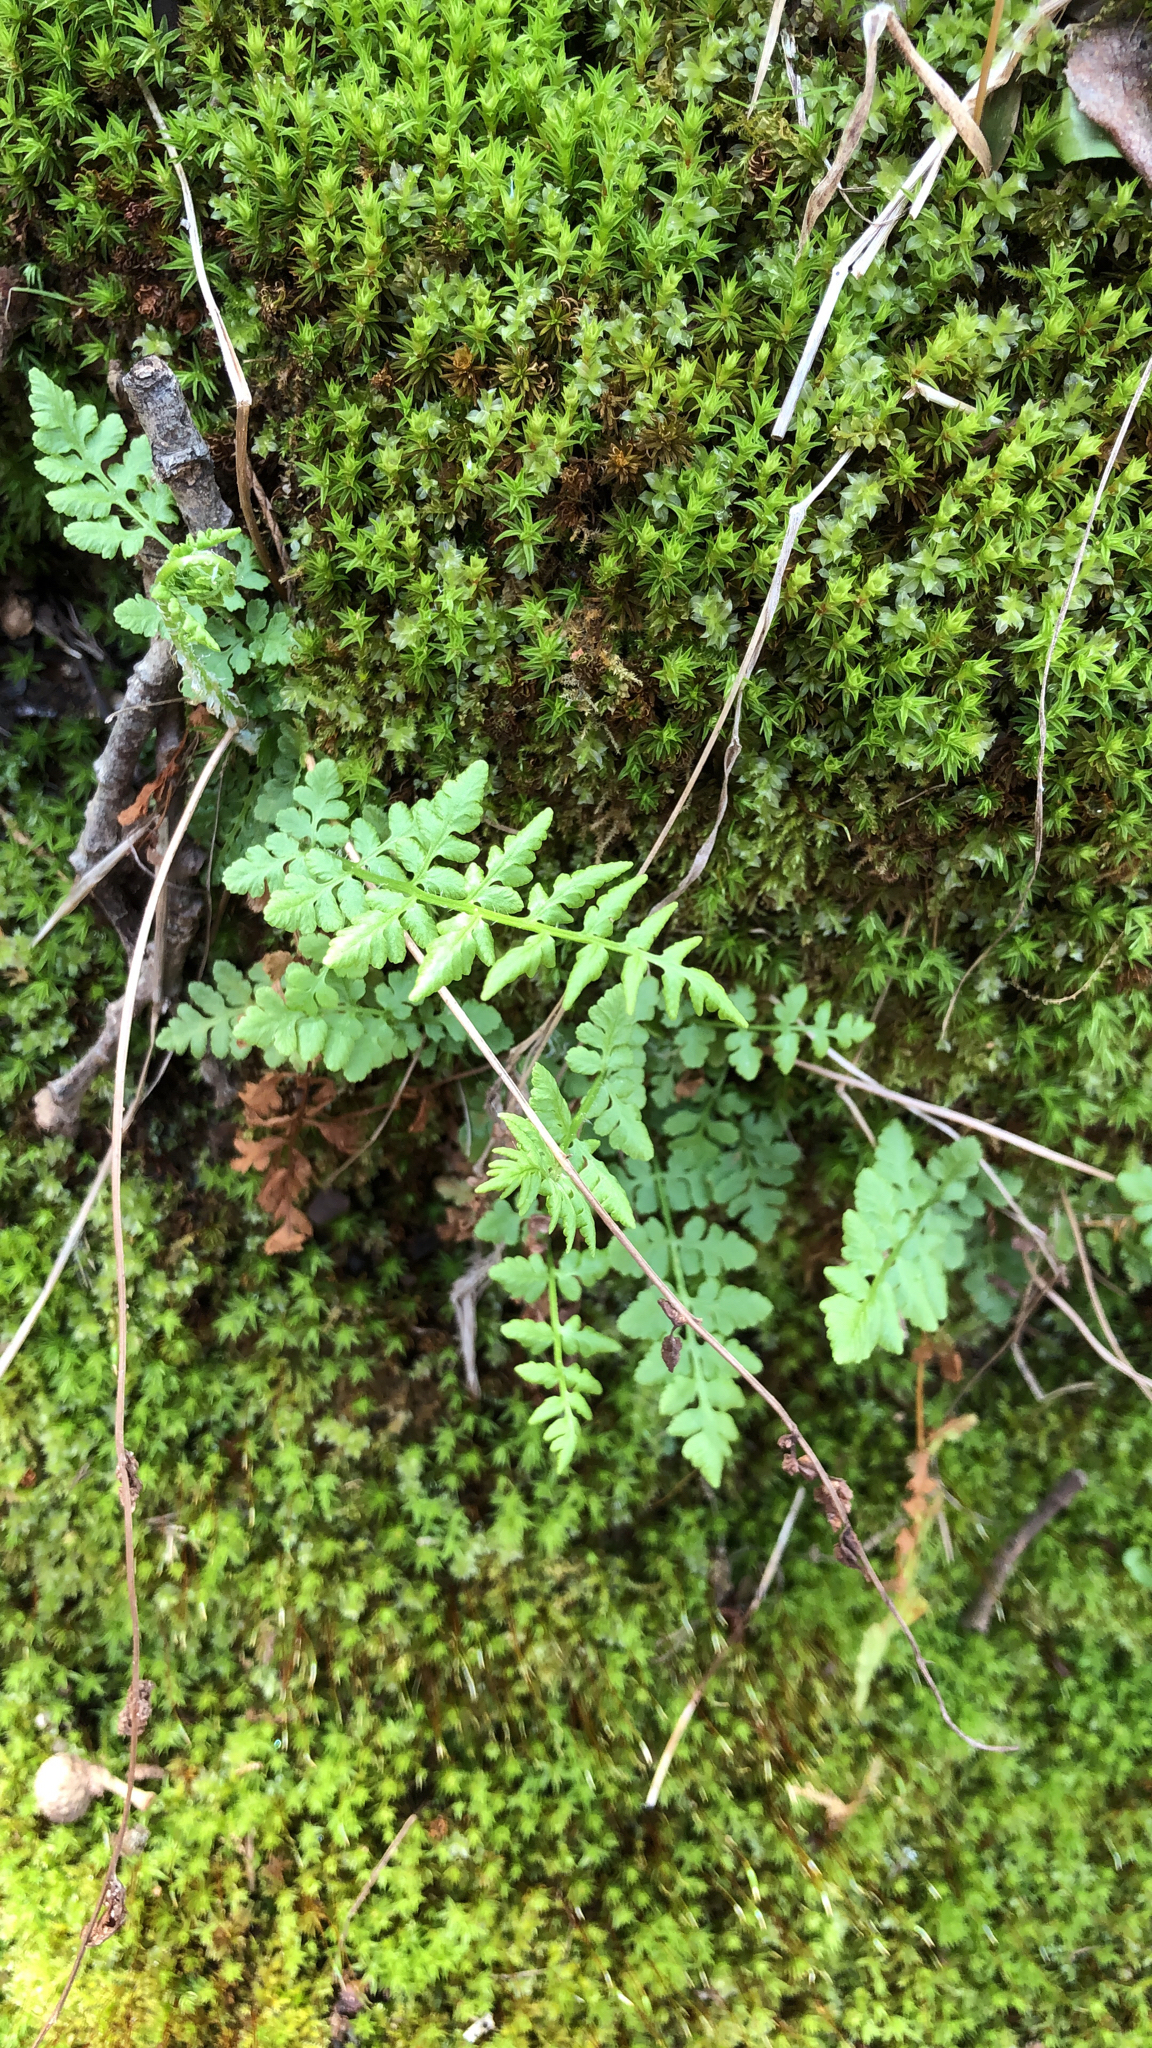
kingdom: Plantae
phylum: Tracheophyta
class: Polypodiopsida
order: Polypodiales
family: Woodsiaceae
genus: Physematium
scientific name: Physematium obtusum
